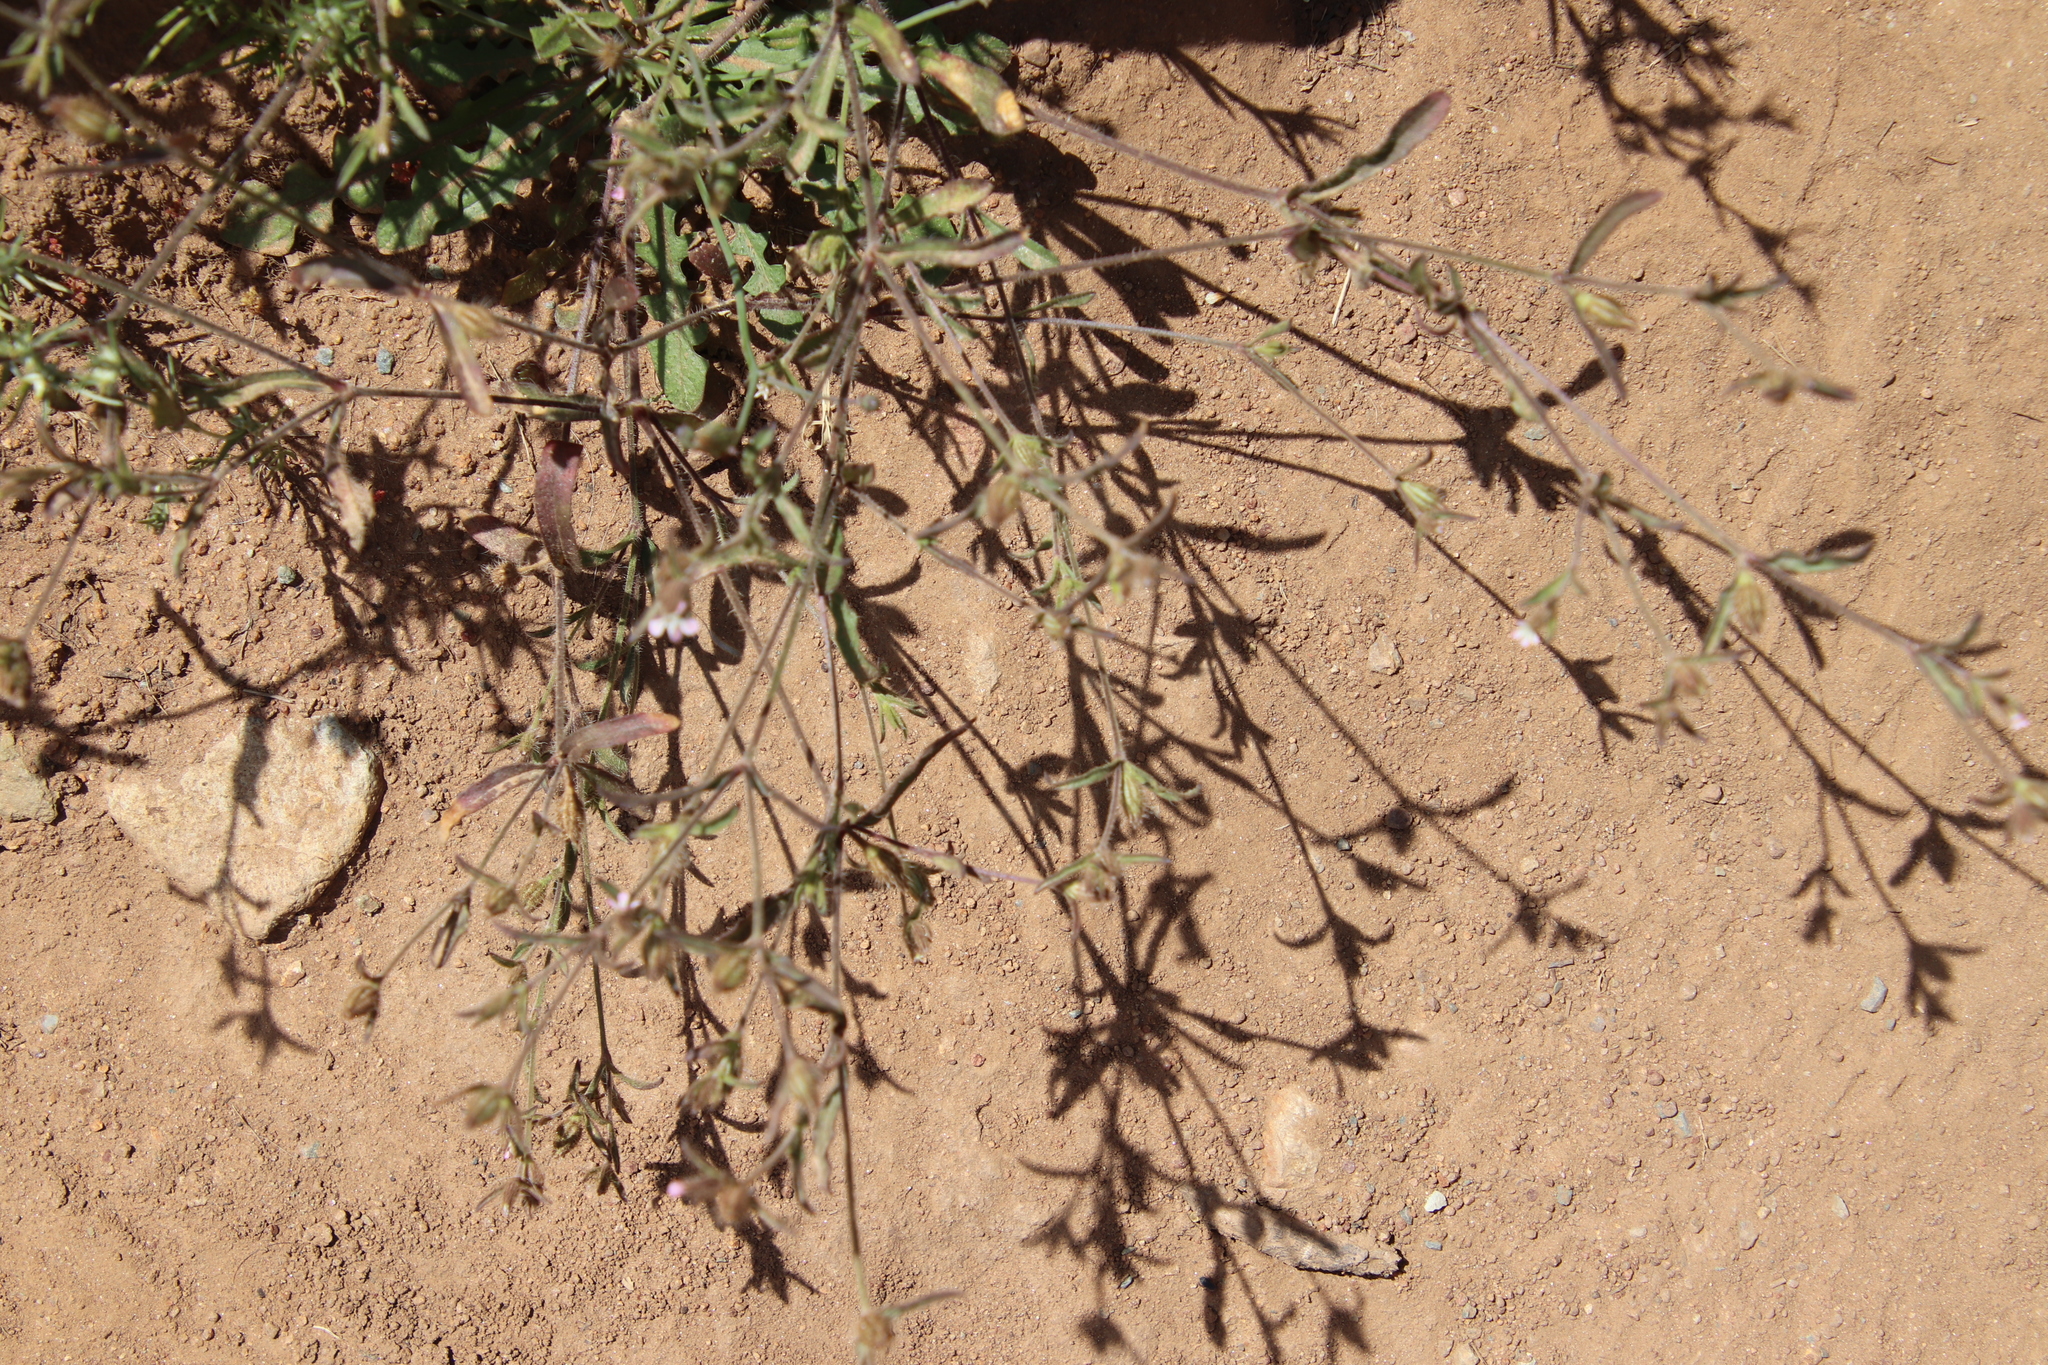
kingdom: Plantae
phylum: Tracheophyta
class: Magnoliopsida
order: Caryophyllales
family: Caryophyllaceae
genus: Silene
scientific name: Silene gallica
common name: Small-flowered catchfly
